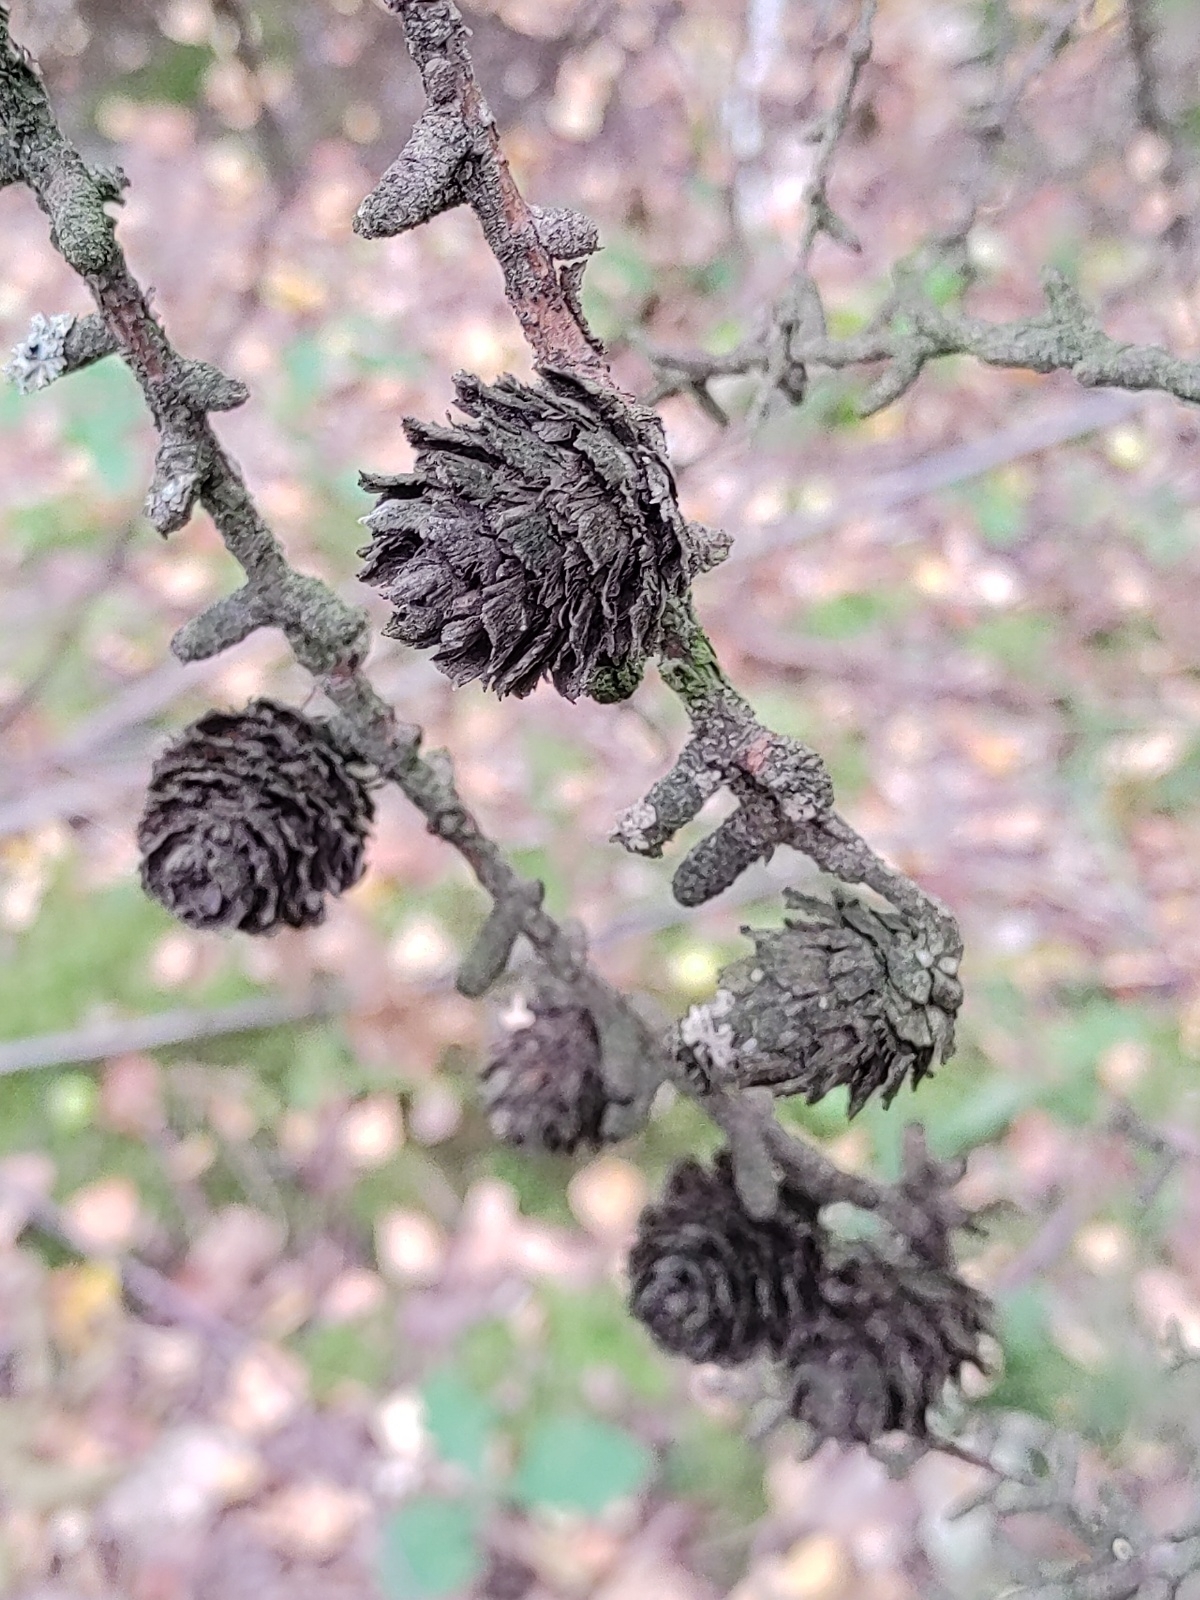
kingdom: Plantae
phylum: Tracheophyta
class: Pinopsida
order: Pinales
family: Pinaceae
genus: Larix
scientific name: Larix decidua
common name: European larch
